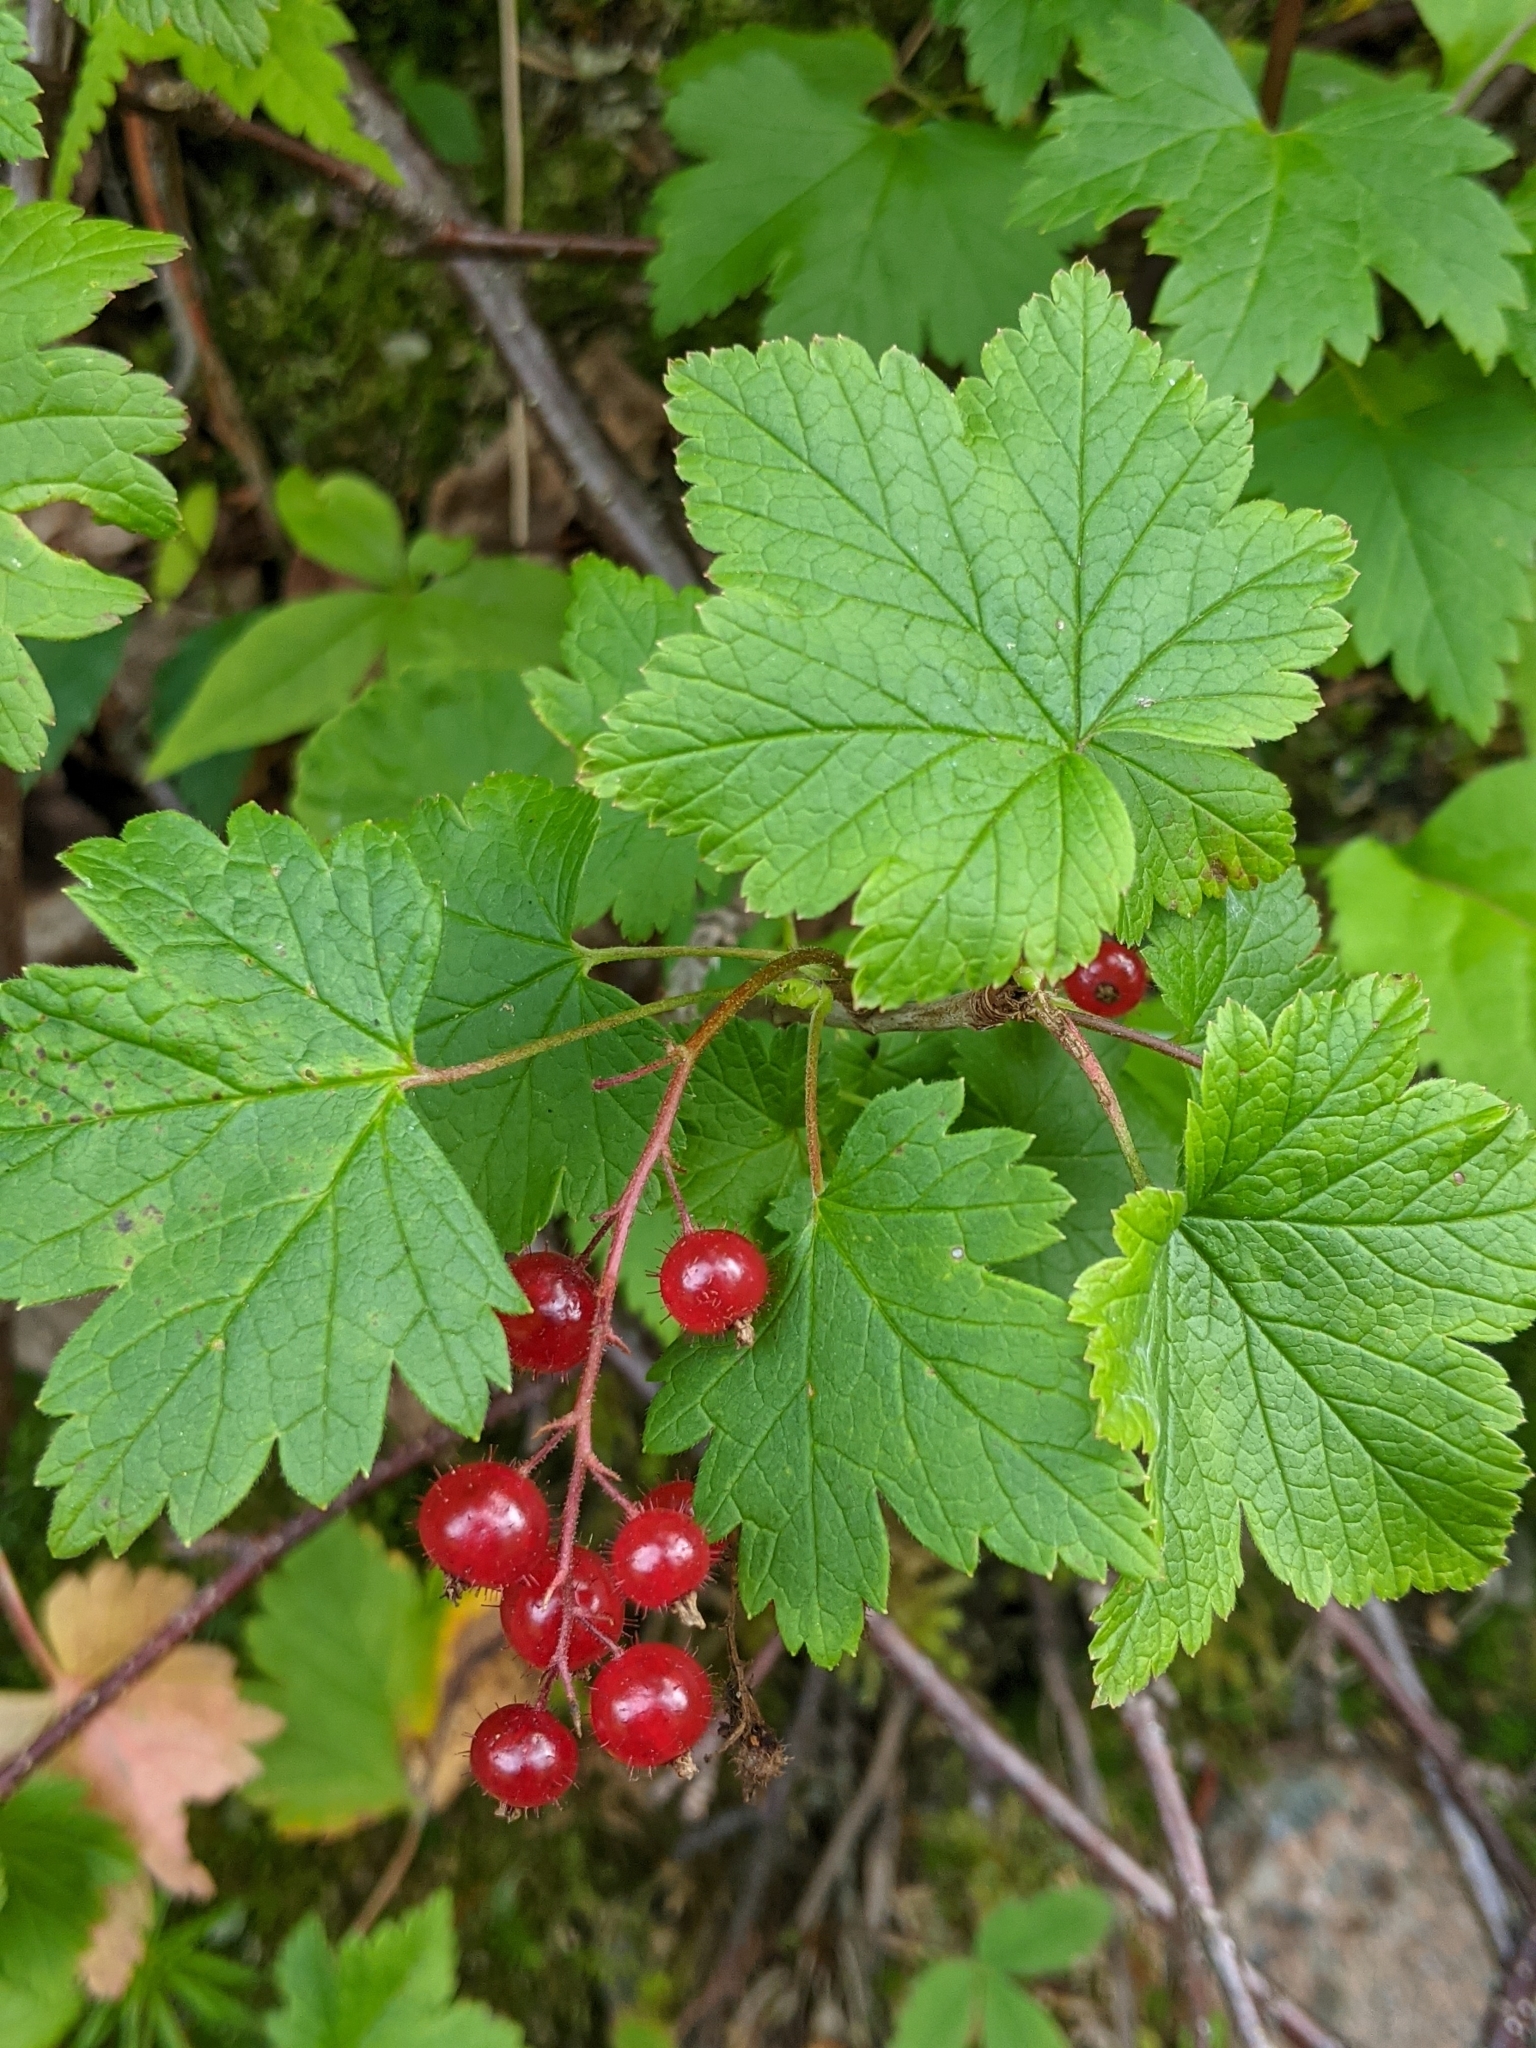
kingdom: Plantae
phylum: Tracheophyta
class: Magnoliopsida
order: Saxifragales
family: Grossulariaceae
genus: Ribes
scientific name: Ribes glandulosum
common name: Skunk currant
